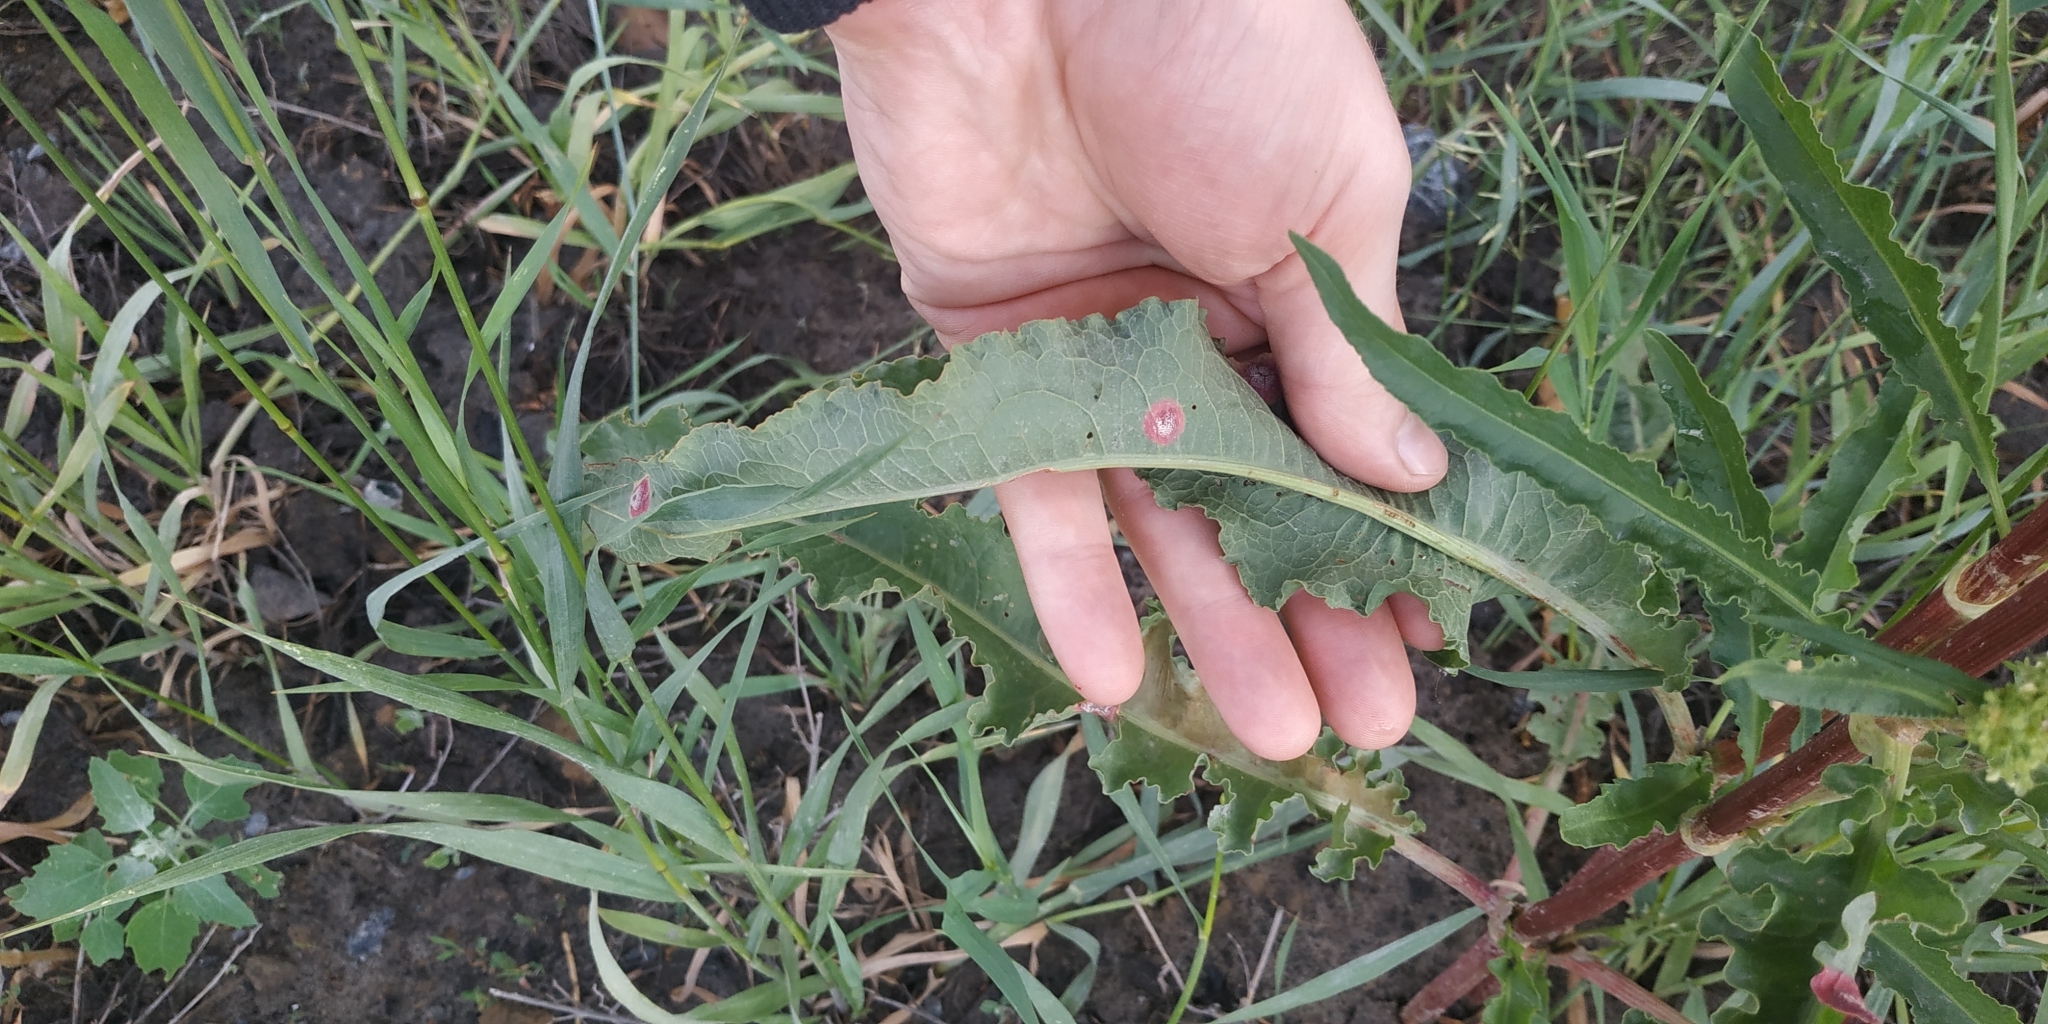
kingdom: Plantae
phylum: Tracheophyta
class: Magnoliopsida
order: Caryophyllales
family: Polygonaceae
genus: Rumex
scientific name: Rumex pseudonatronatus
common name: Field dock
